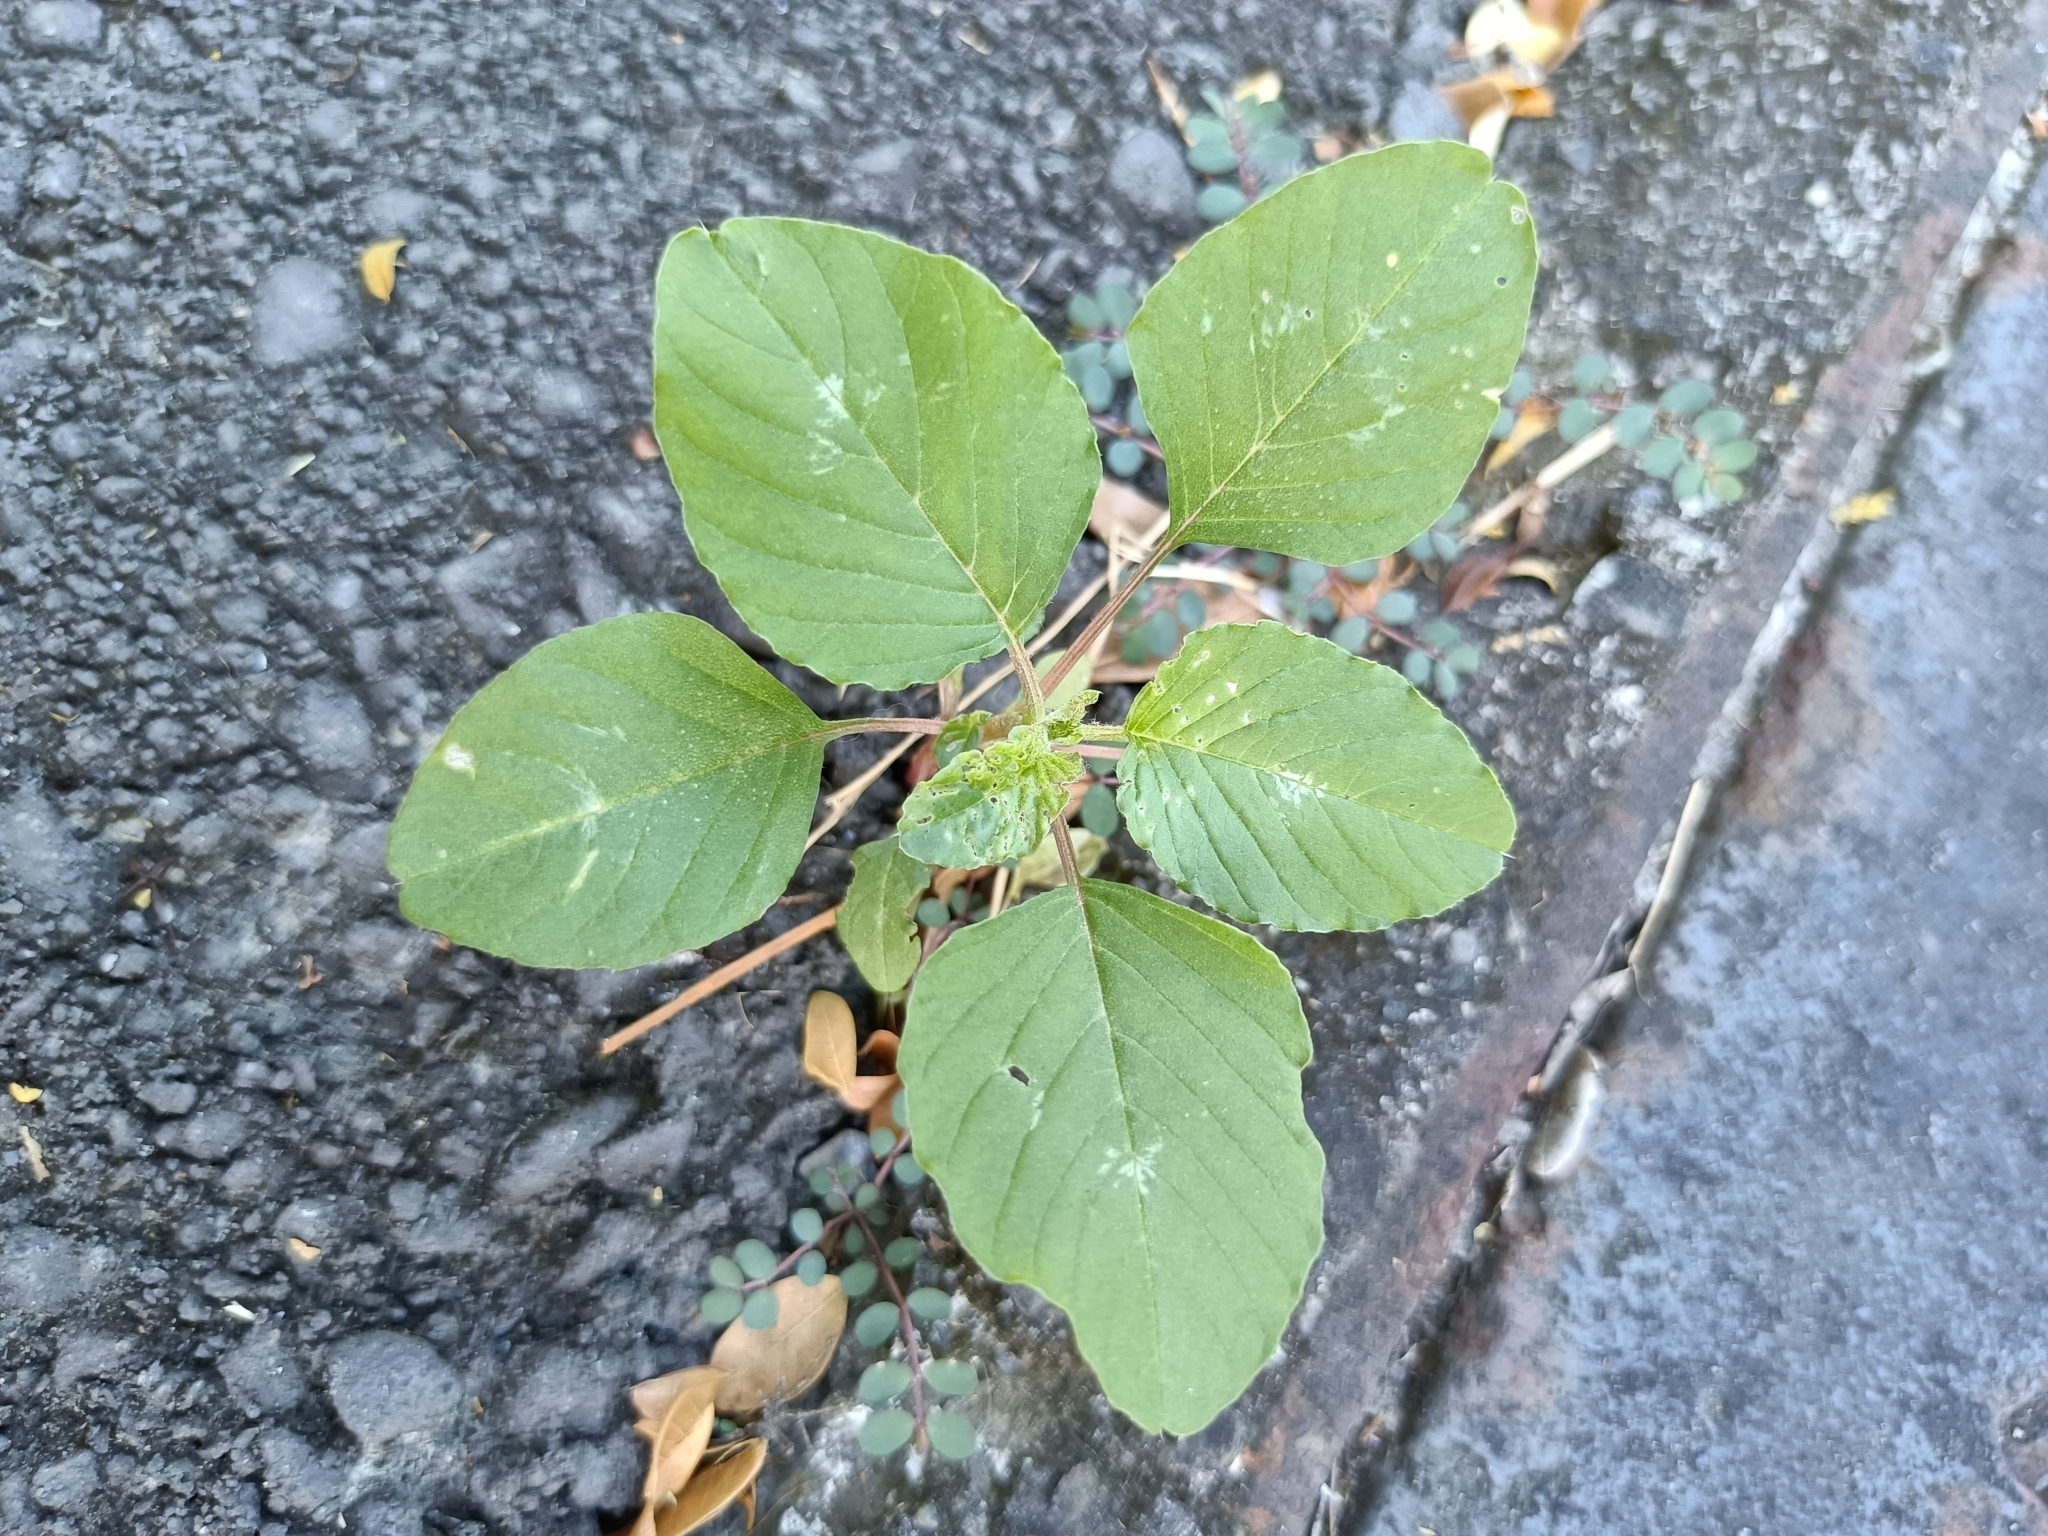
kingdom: Plantae
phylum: Tracheophyta
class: Magnoliopsida
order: Caryophyllales
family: Amaranthaceae
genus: Amaranthus
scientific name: Amaranthus blitum
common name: Purple amaranth
